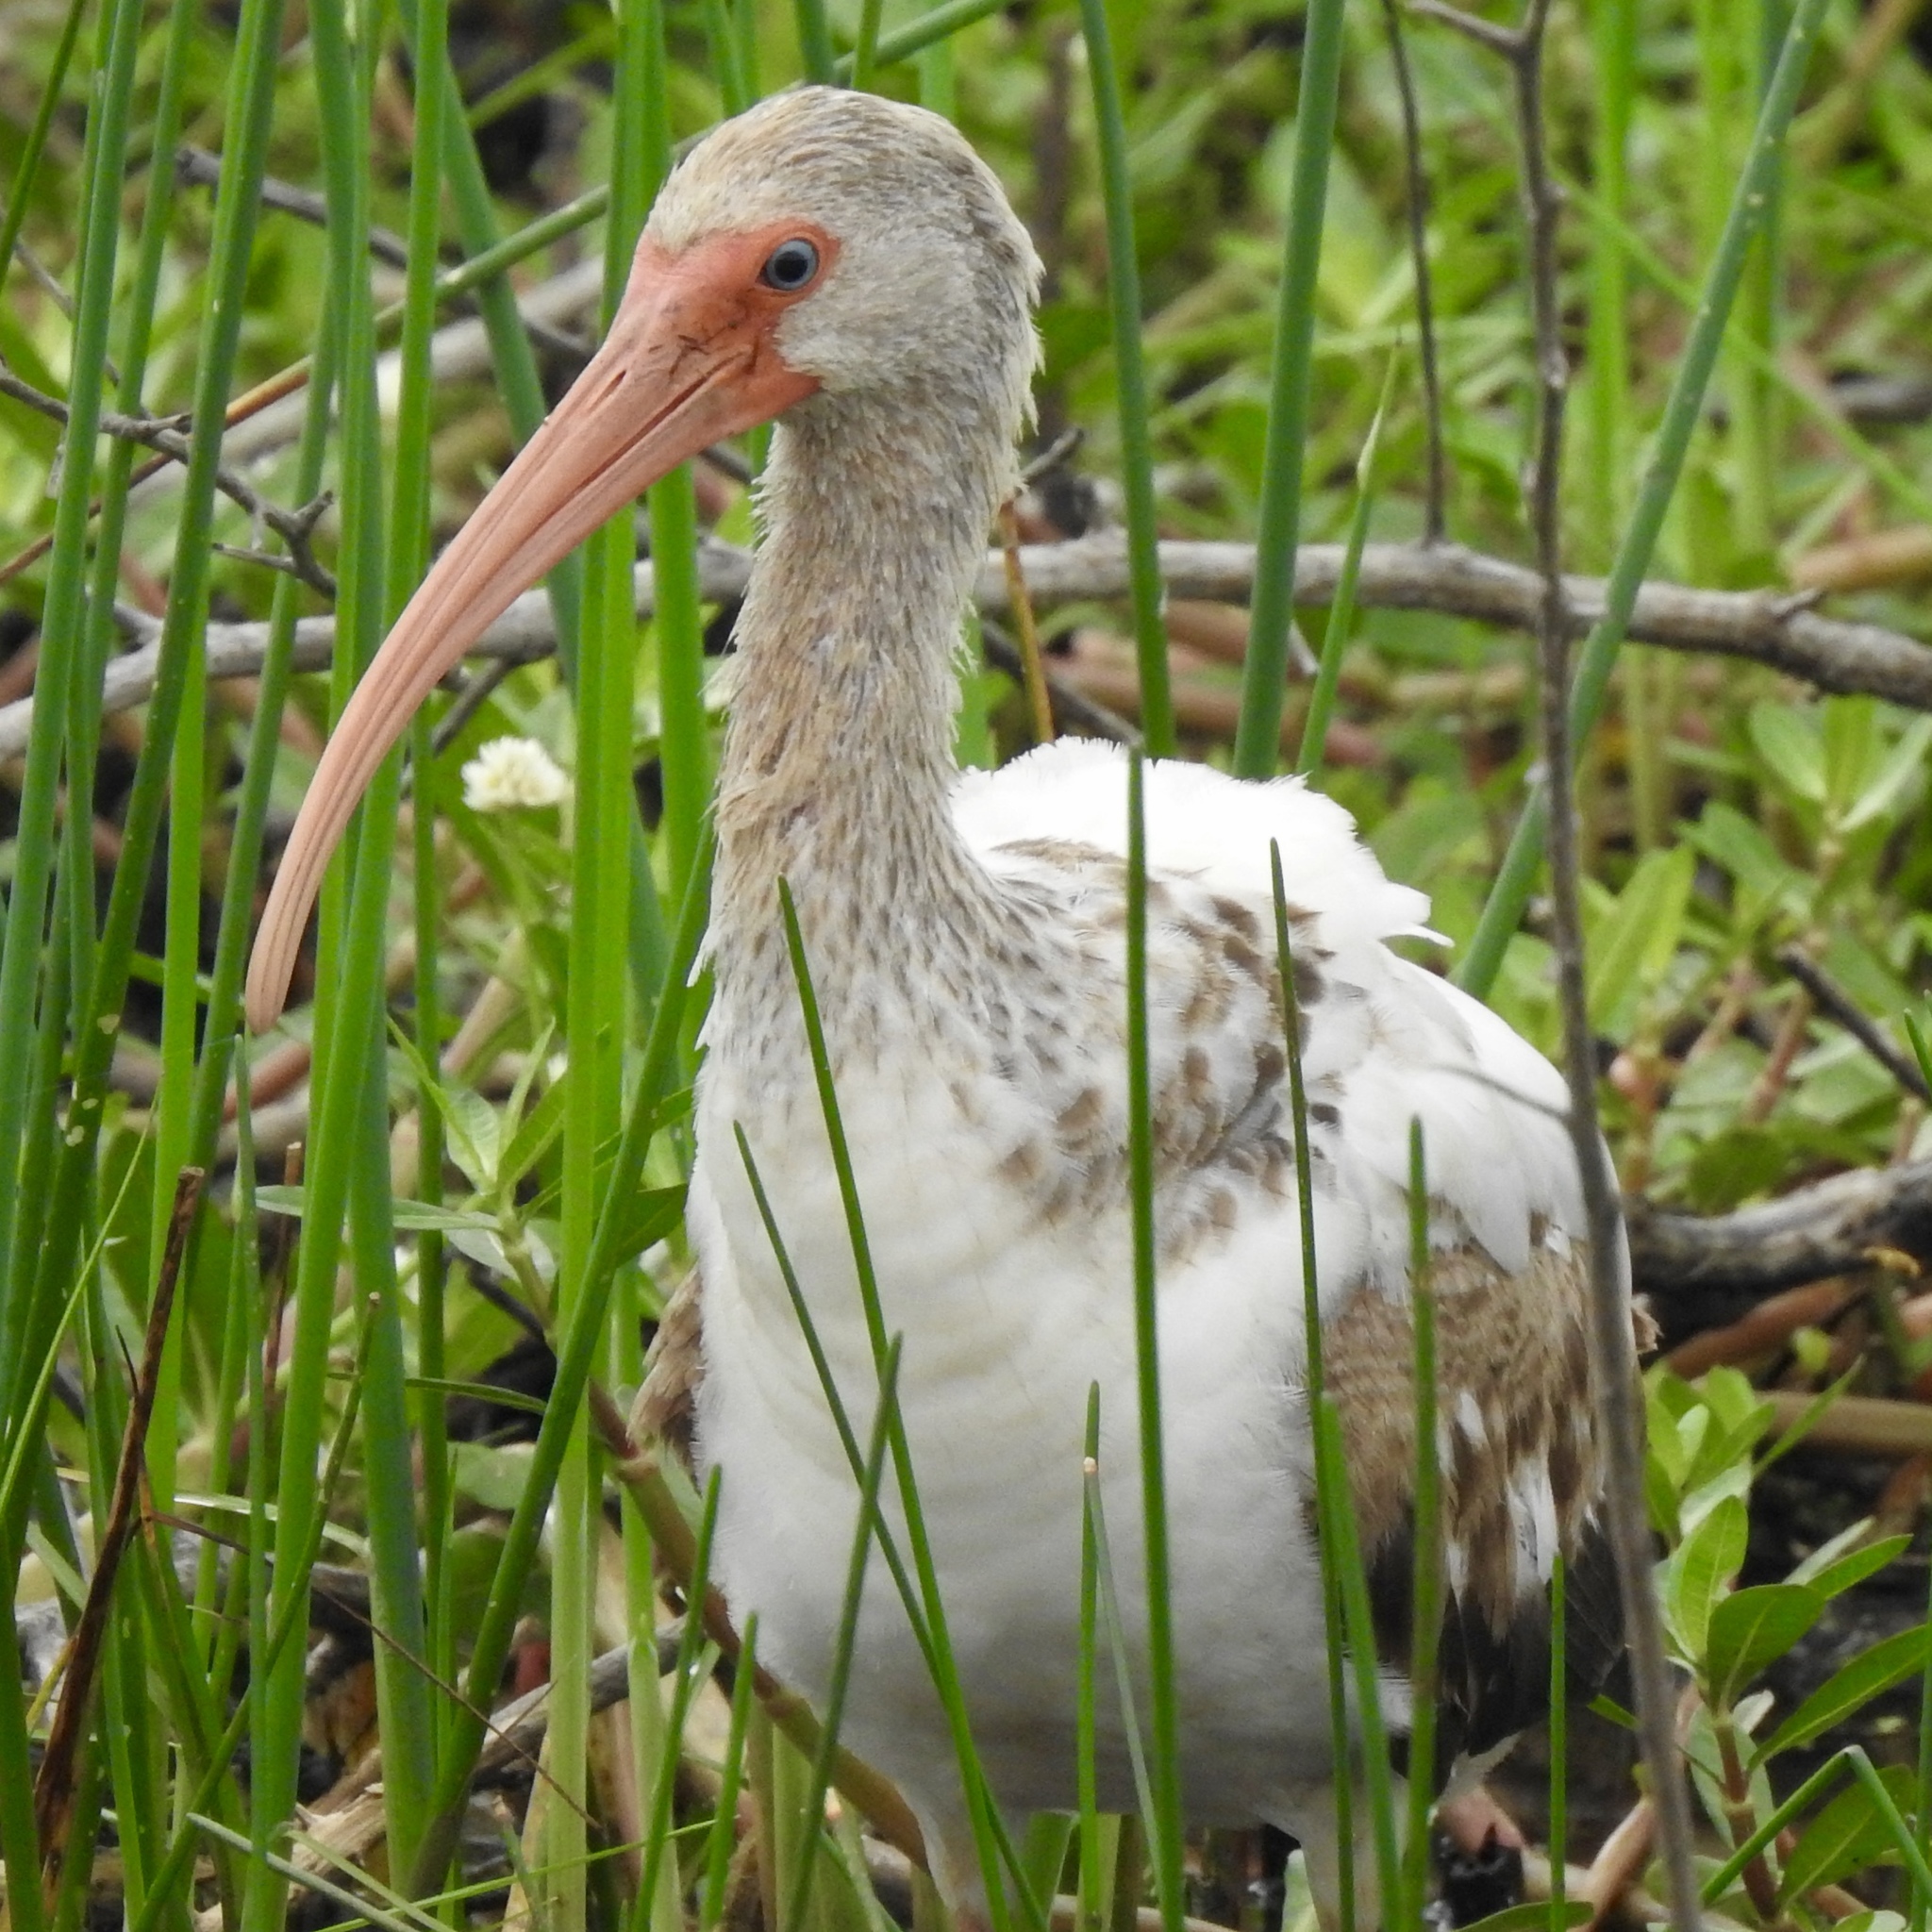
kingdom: Animalia
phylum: Chordata
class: Aves
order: Pelecaniformes
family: Threskiornithidae
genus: Eudocimus
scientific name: Eudocimus albus
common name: White ibis
